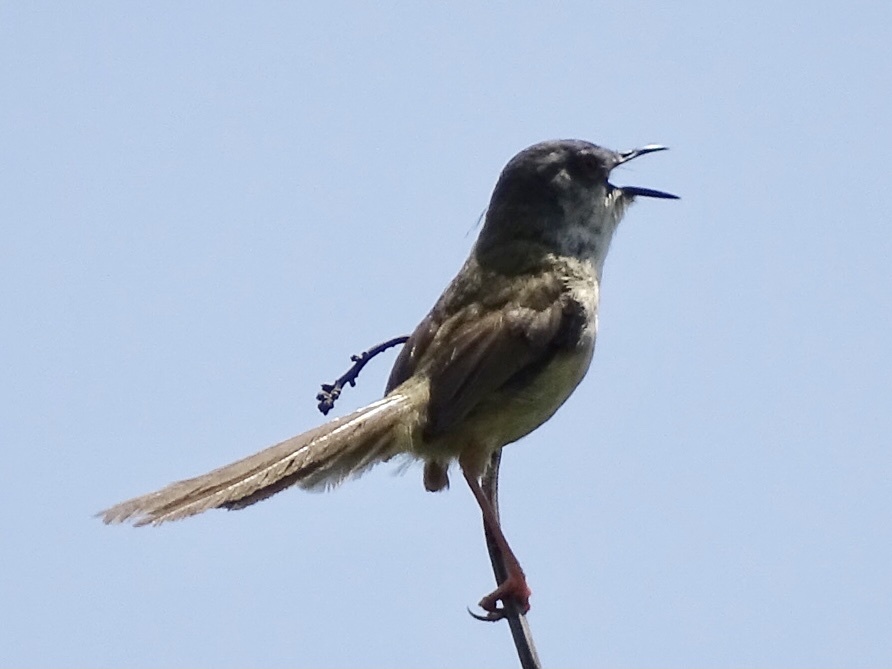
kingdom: Animalia
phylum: Chordata
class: Aves
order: Passeriformes
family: Cisticolidae
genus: Prinia
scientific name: Prinia flaviventris
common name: Yellow-bellied prinia
